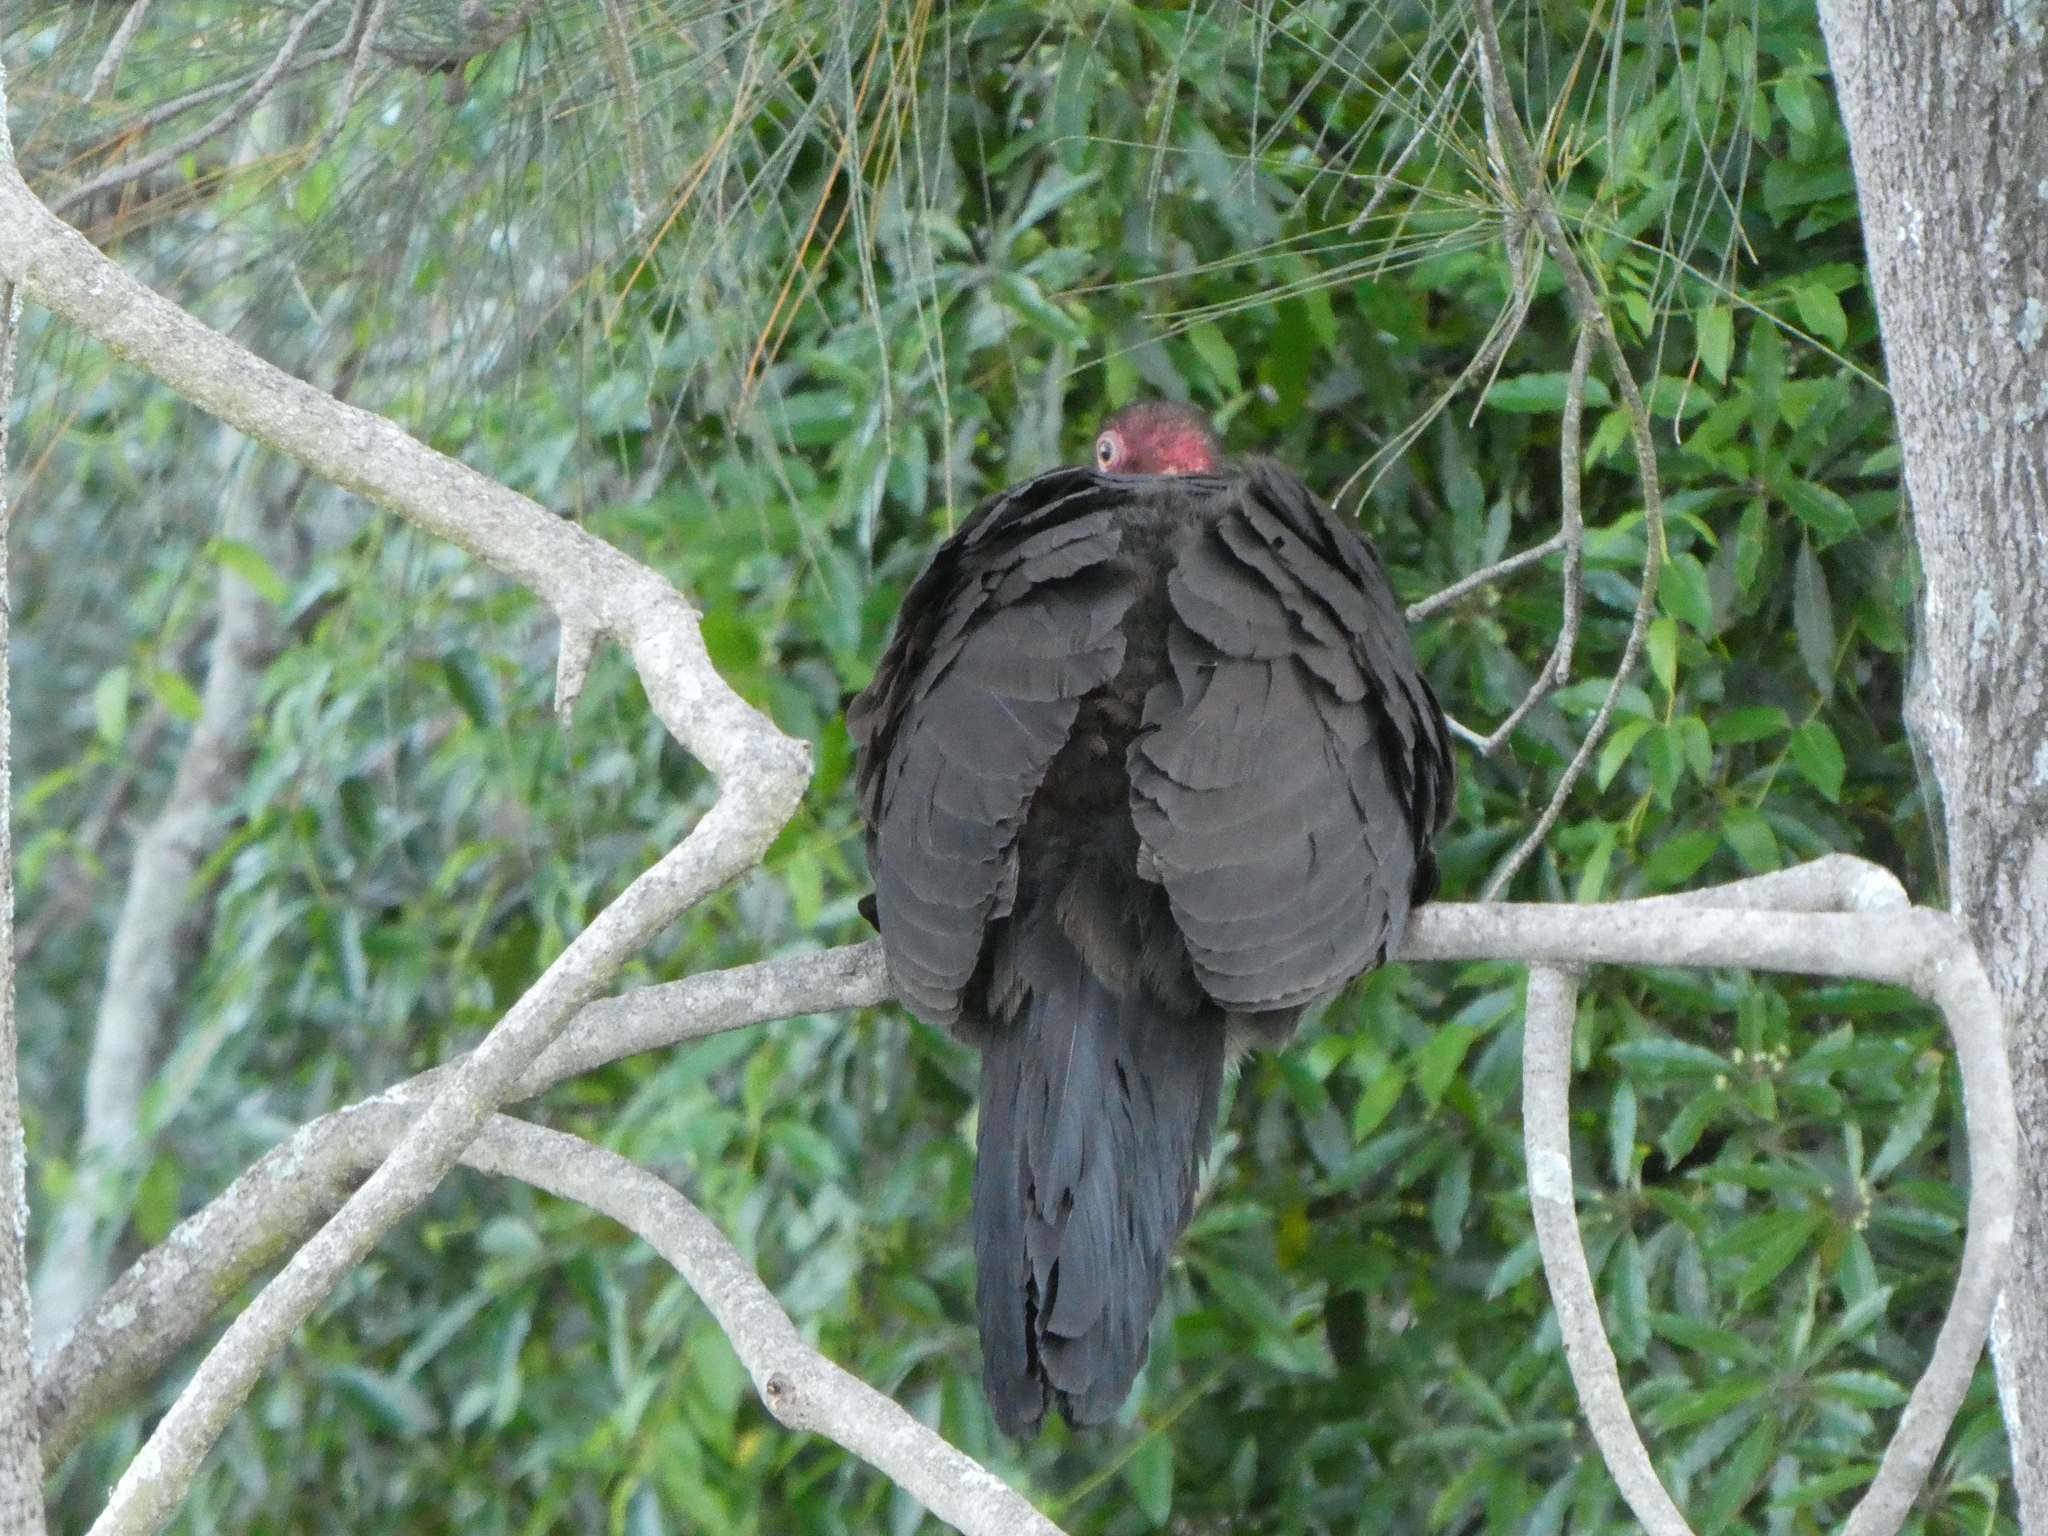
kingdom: Animalia
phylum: Chordata
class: Aves
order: Galliformes
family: Megapodiidae
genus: Alectura
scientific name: Alectura lathami
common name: Australian brushturkey
